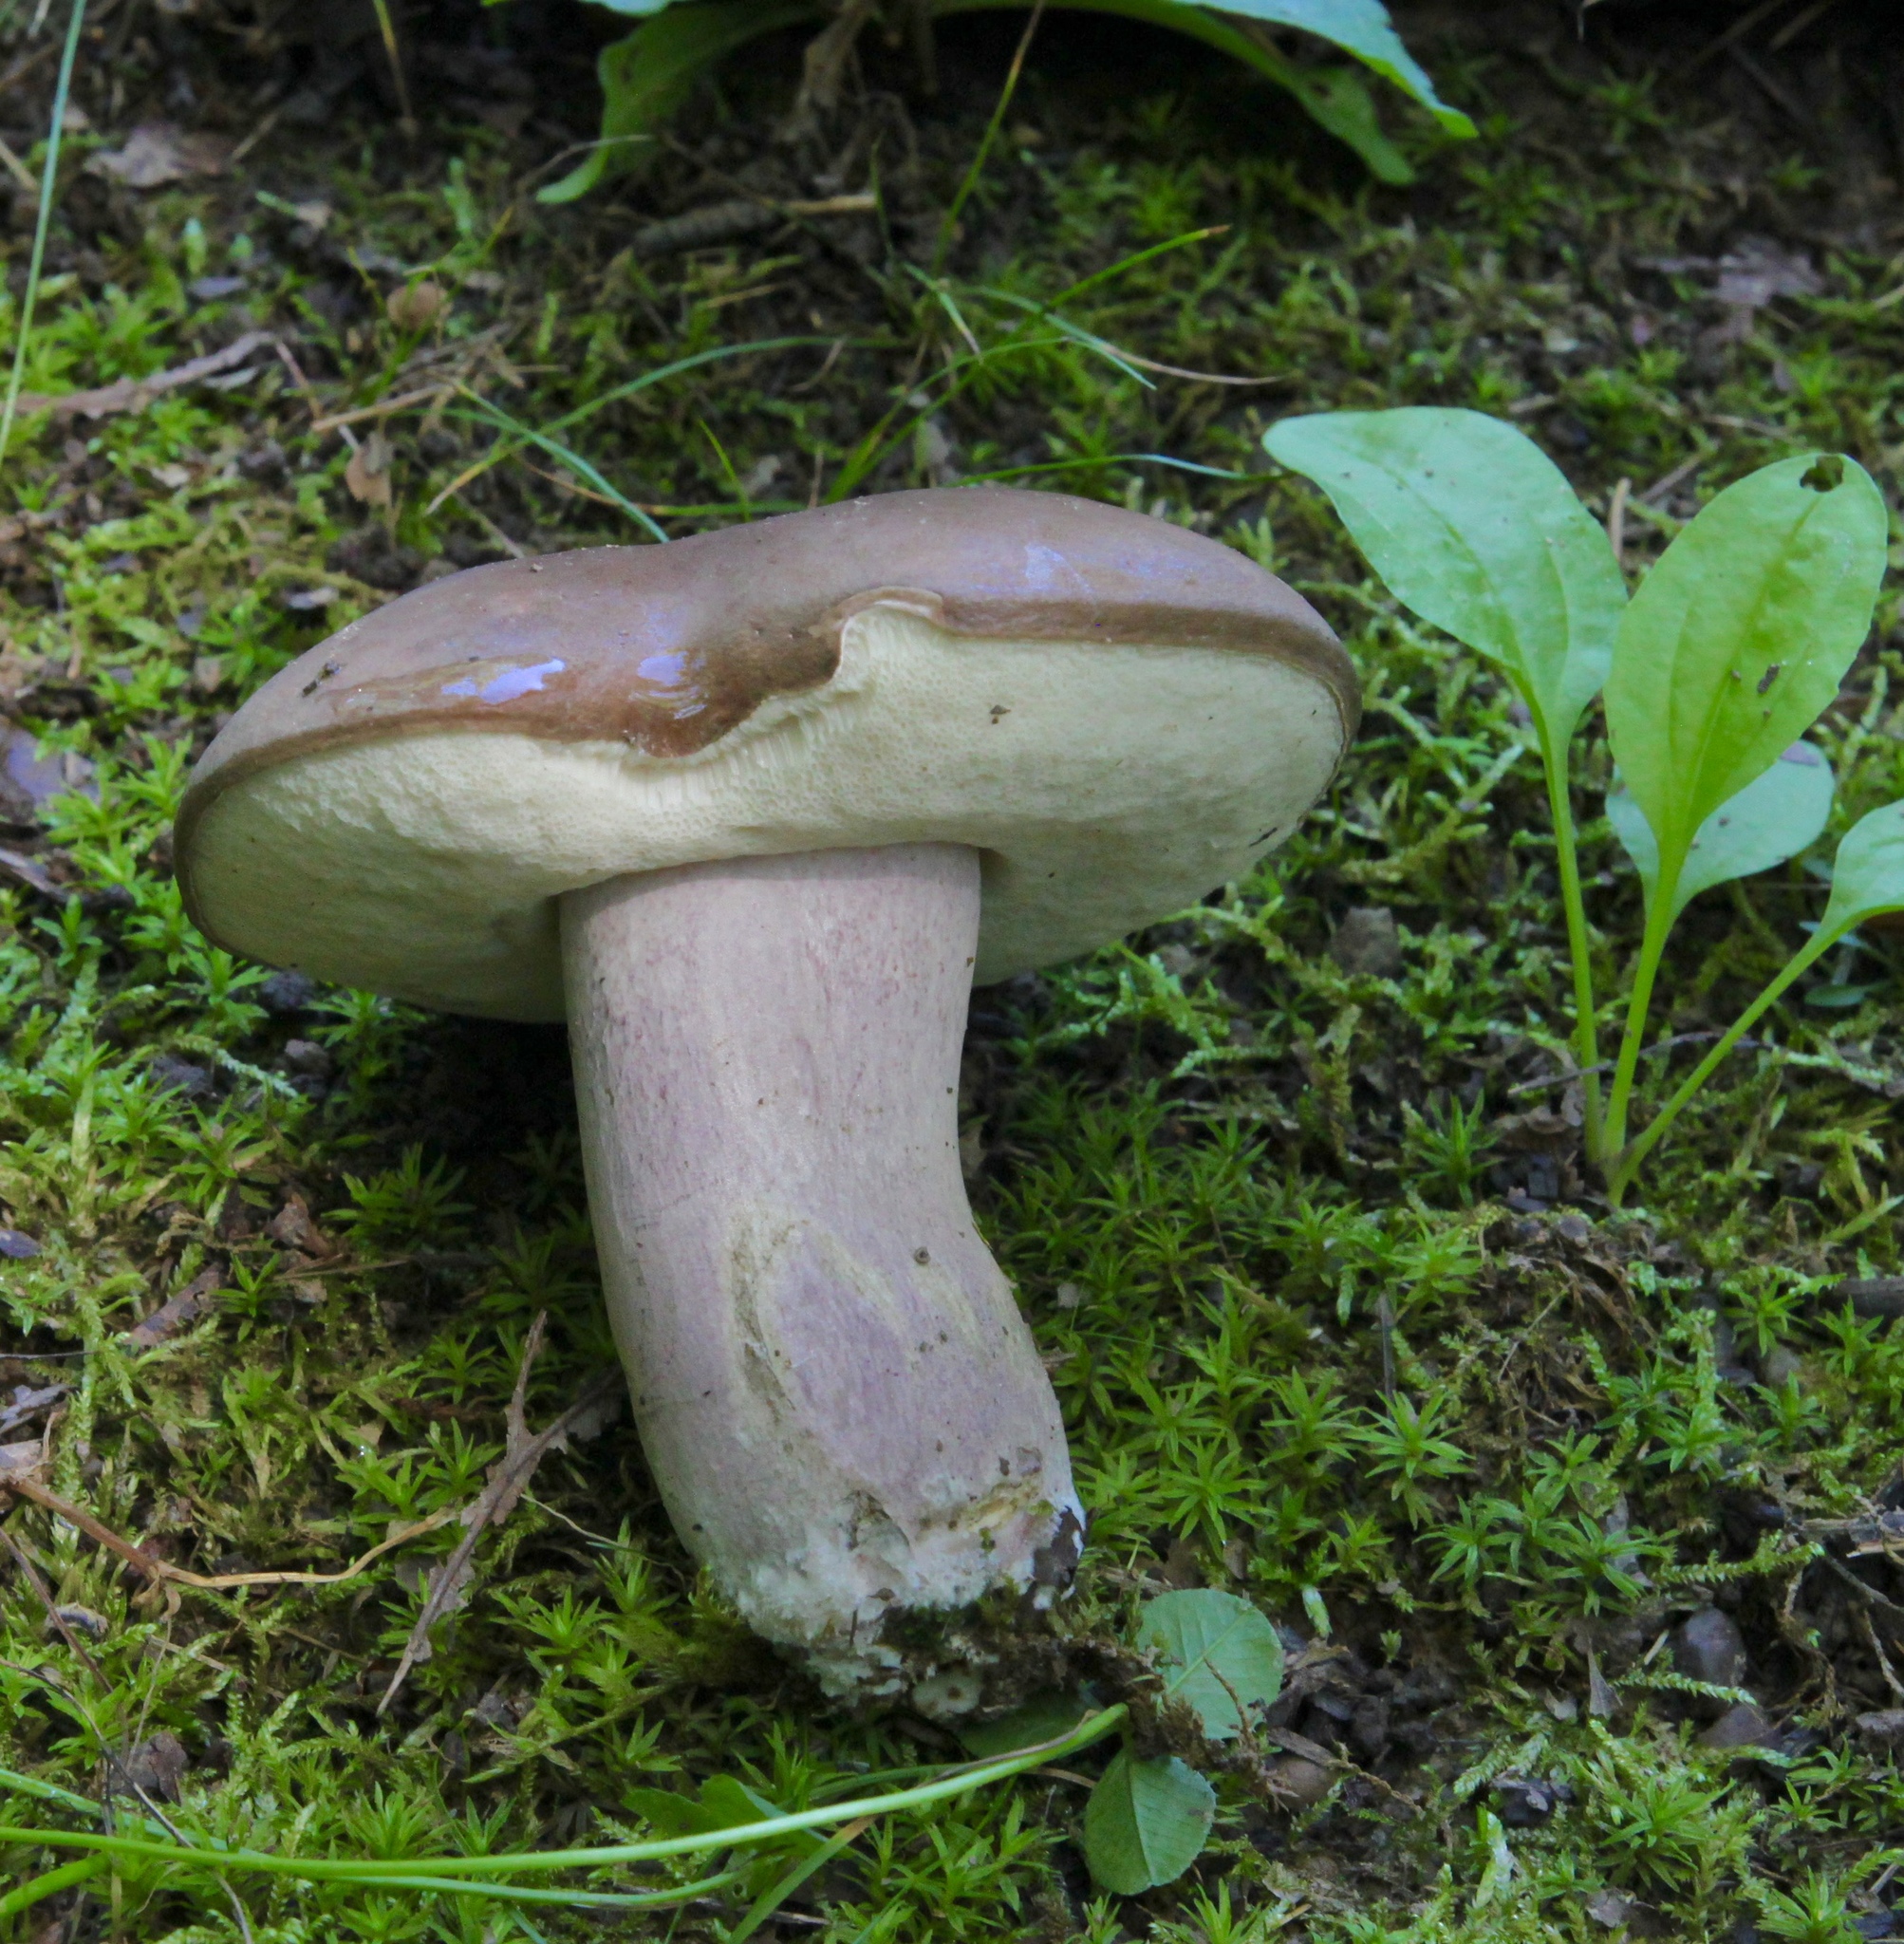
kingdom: Fungi
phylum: Basidiomycota
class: Agaricomycetes
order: Boletales
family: Boletaceae
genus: Tylopilus
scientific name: Tylopilus plumbeoviolaceus
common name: Violet gray bolete
